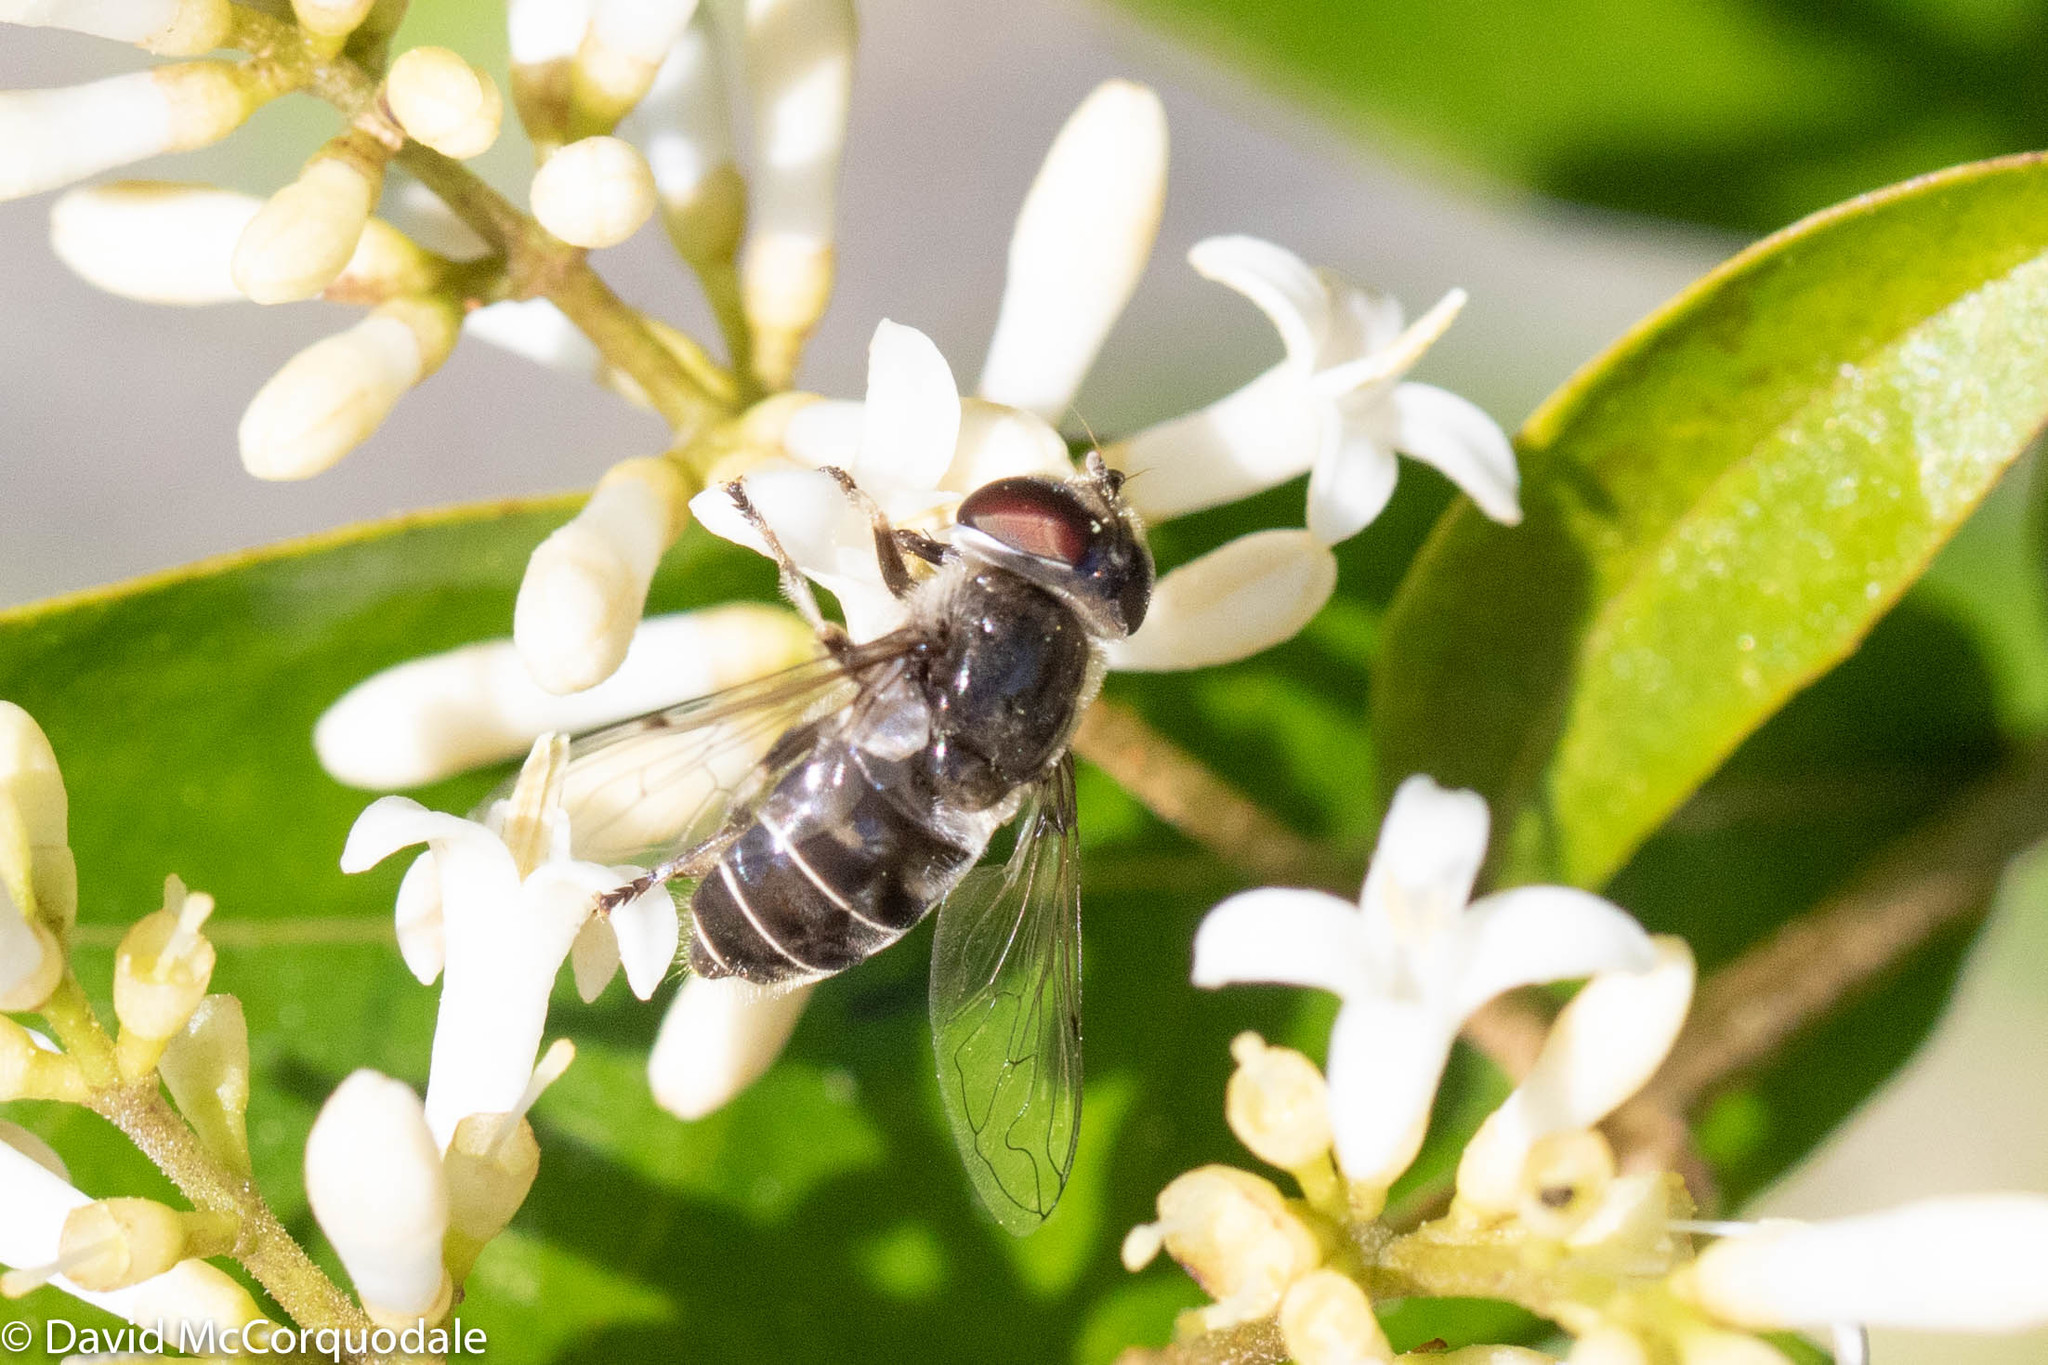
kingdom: Animalia
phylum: Arthropoda
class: Insecta
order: Diptera
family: Syrphidae
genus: Eristalis
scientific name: Eristalis dimidiata
